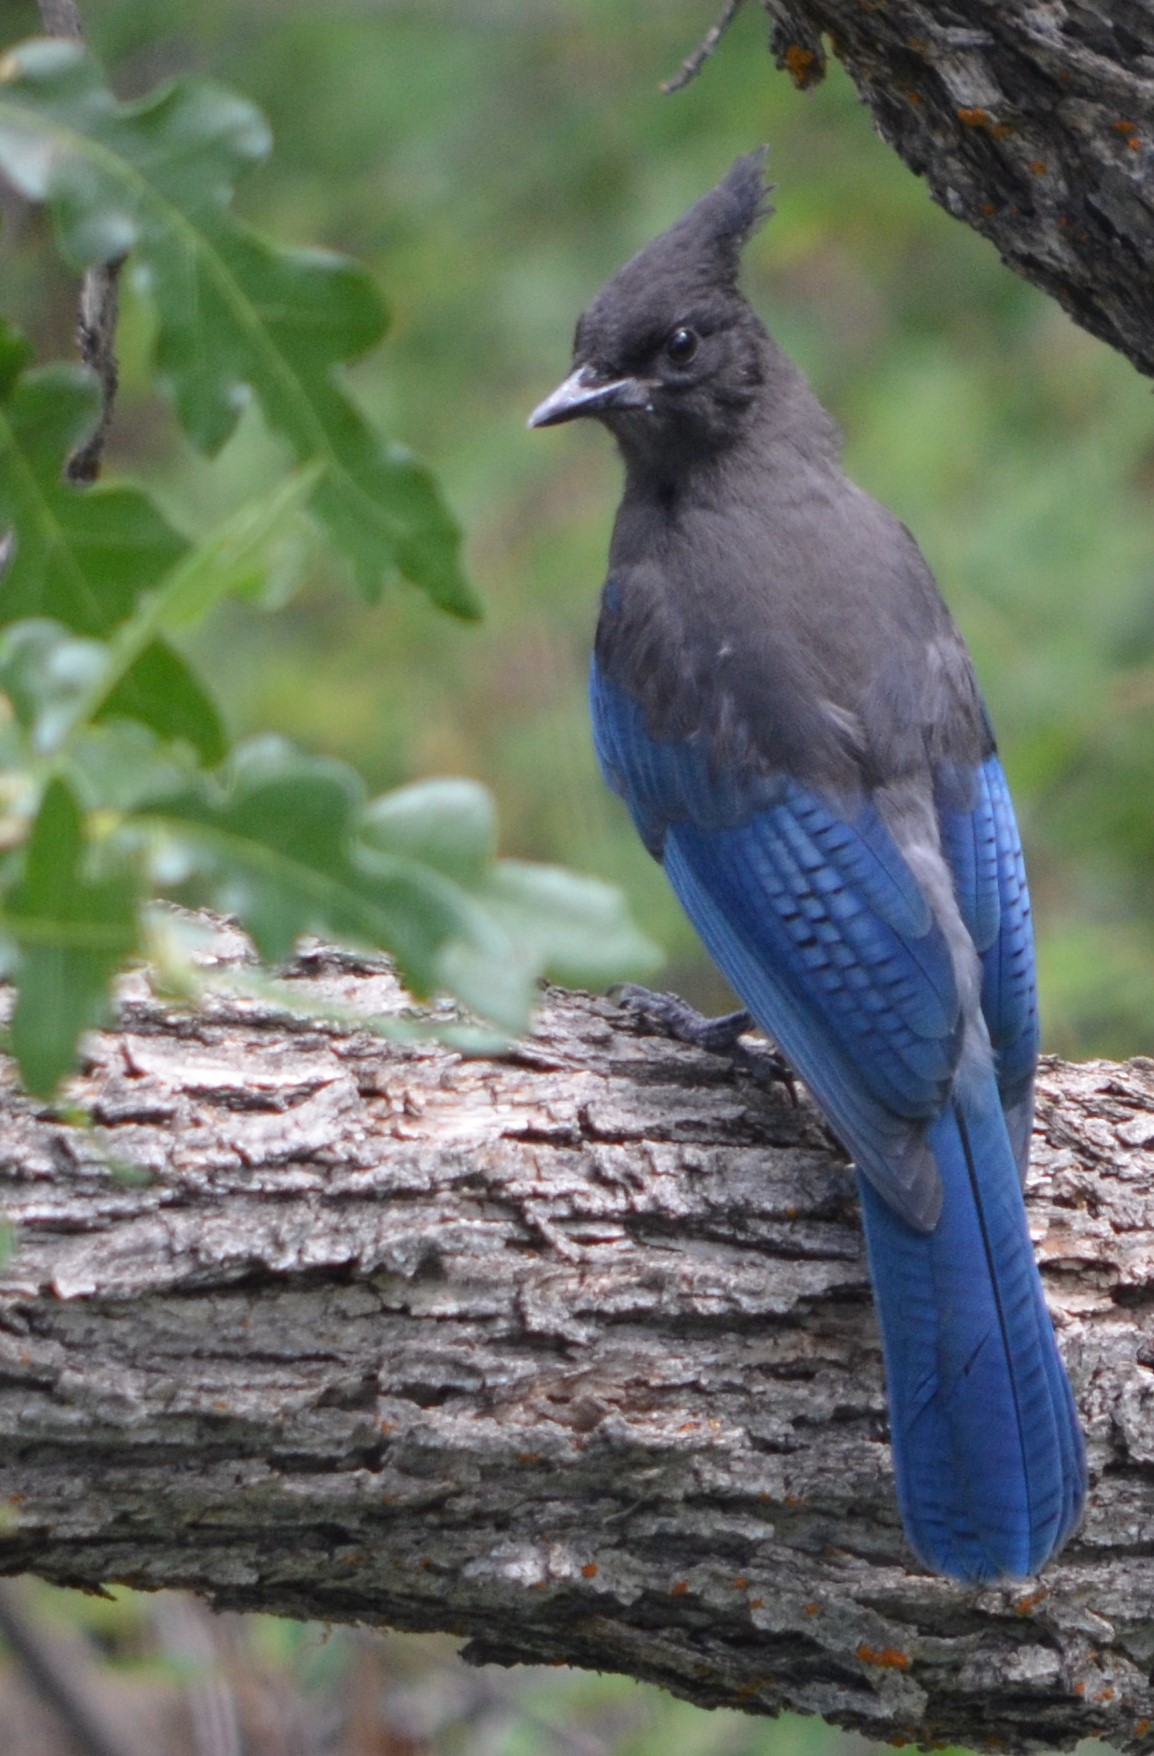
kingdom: Animalia
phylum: Chordata
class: Aves
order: Passeriformes
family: Corvidae
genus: Cyanocitta
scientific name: Cyanocitta stelleri
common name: Steller's jay
